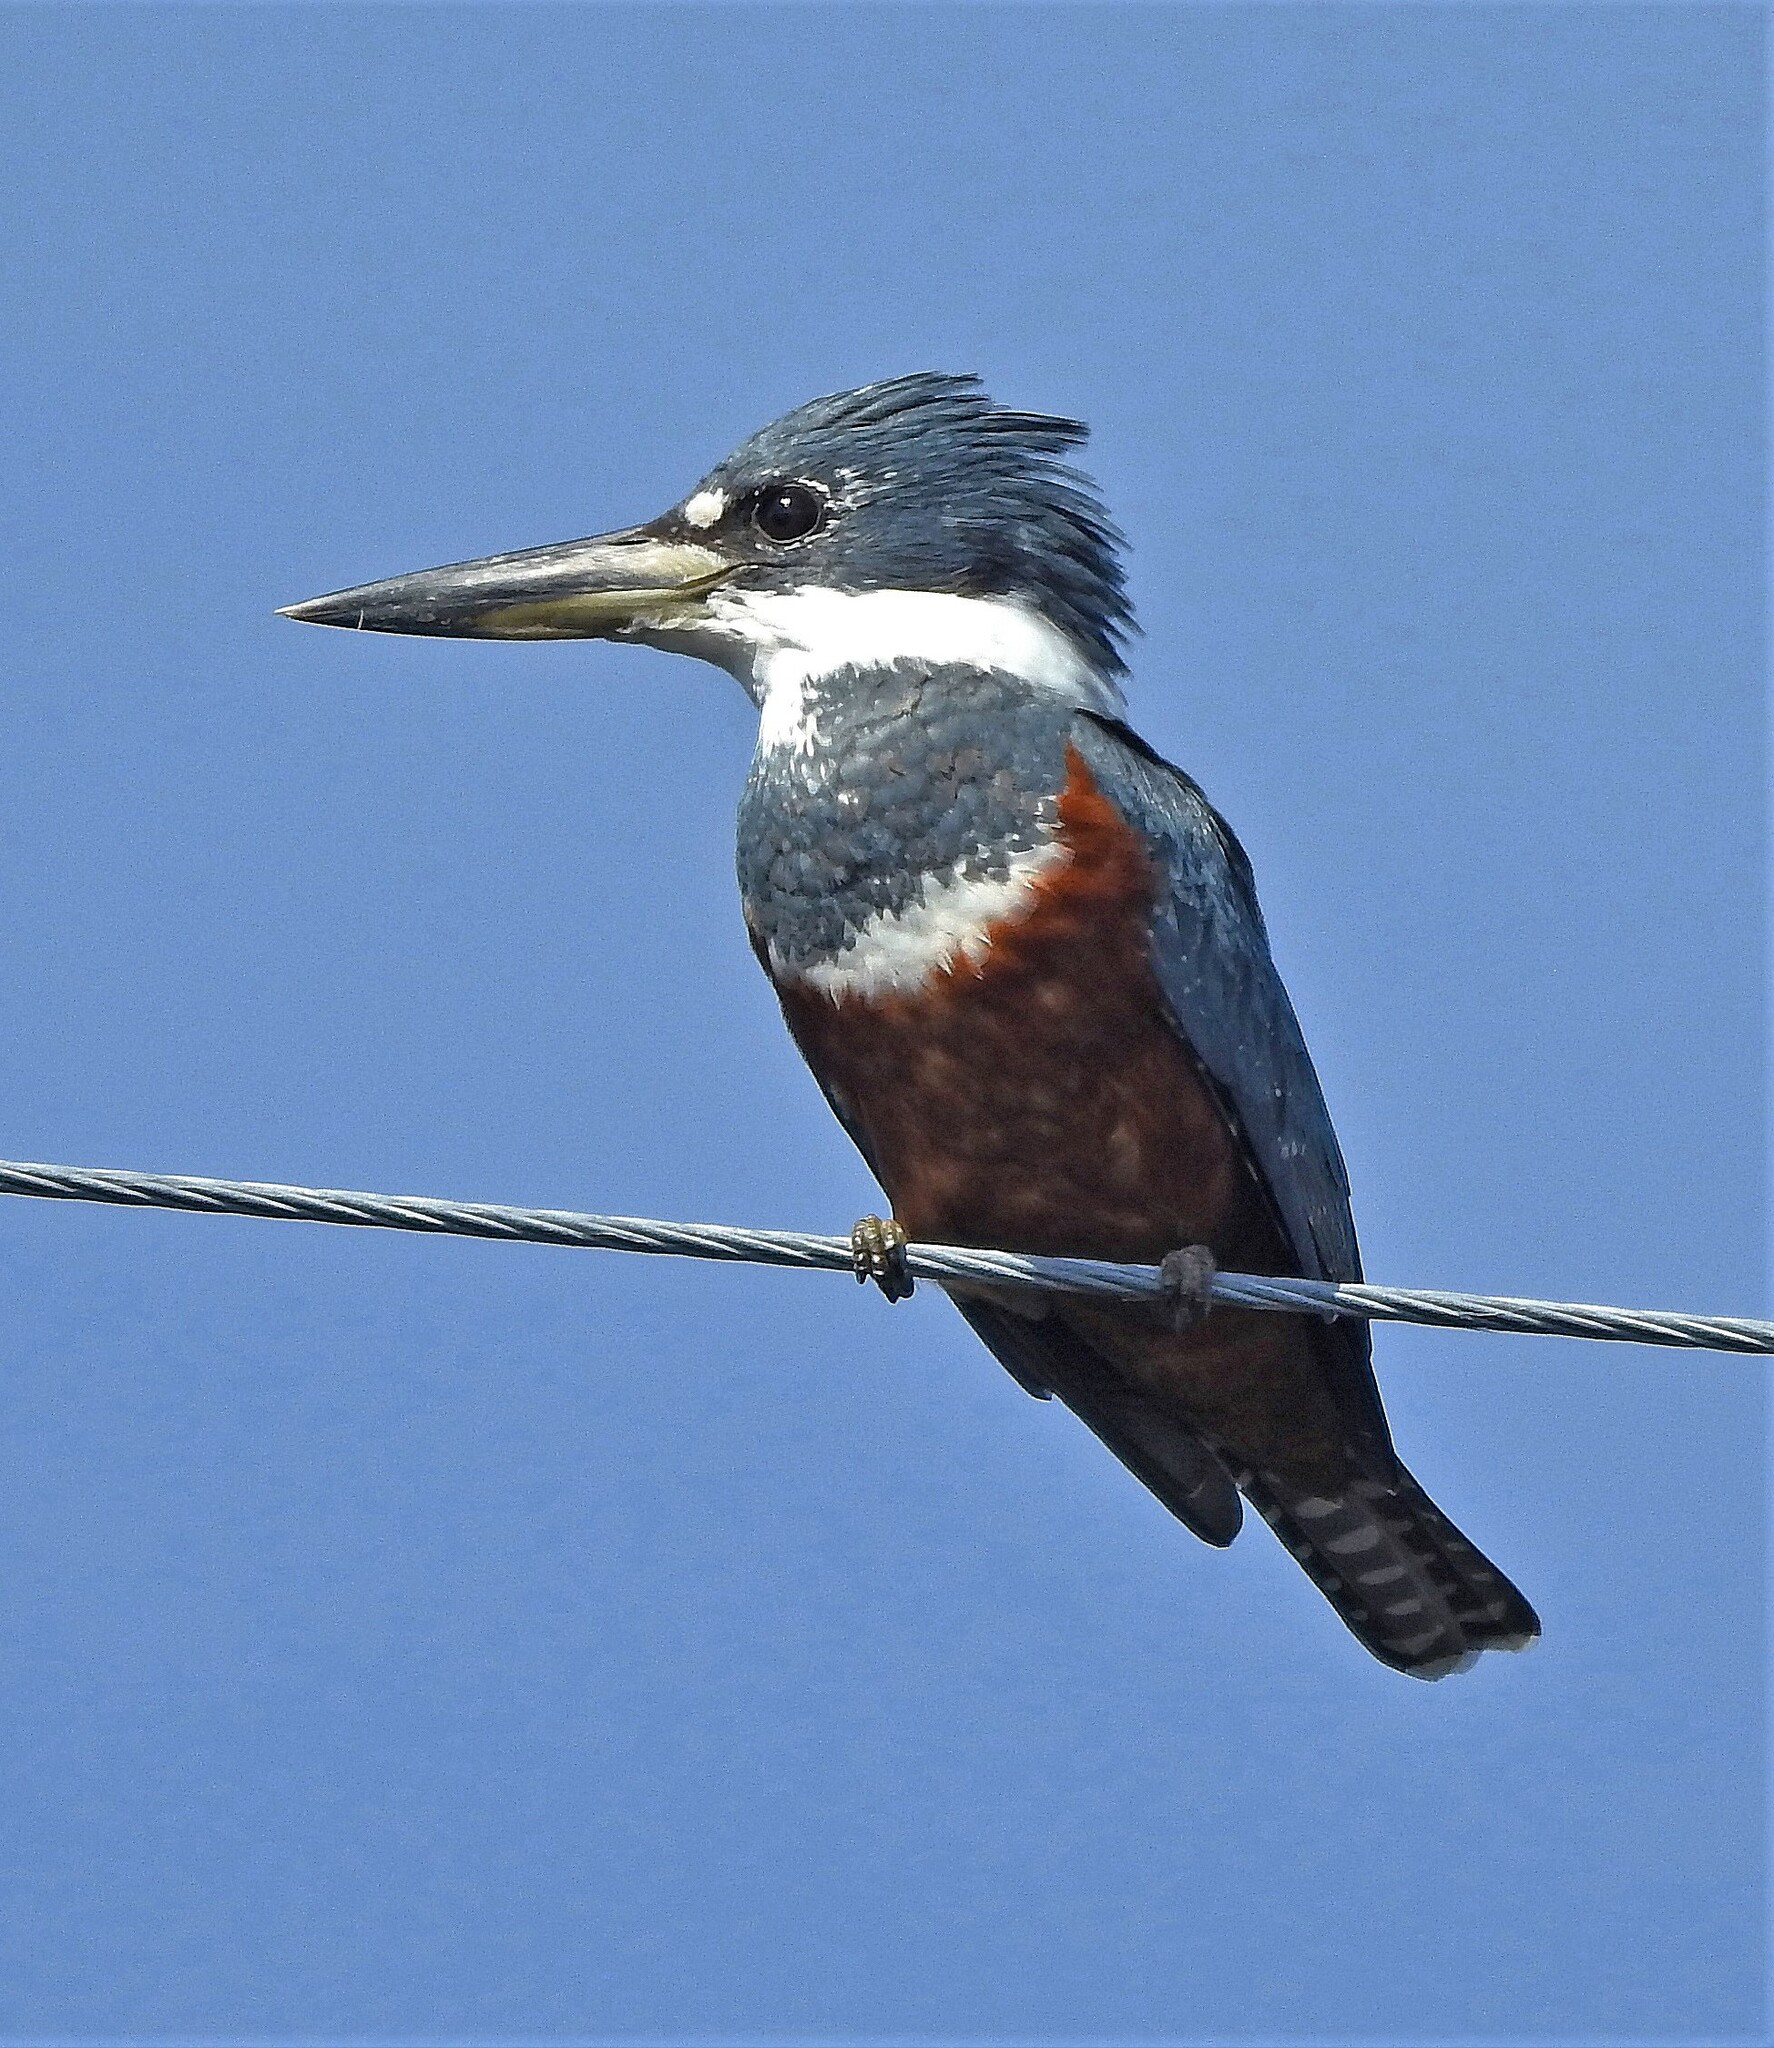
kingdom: Animalia
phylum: Chordata
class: Aves
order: Coraciiformes
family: Alcedinidae
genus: Megaceryle
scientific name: Megaceryle torquata
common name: Ringed kingfisher
